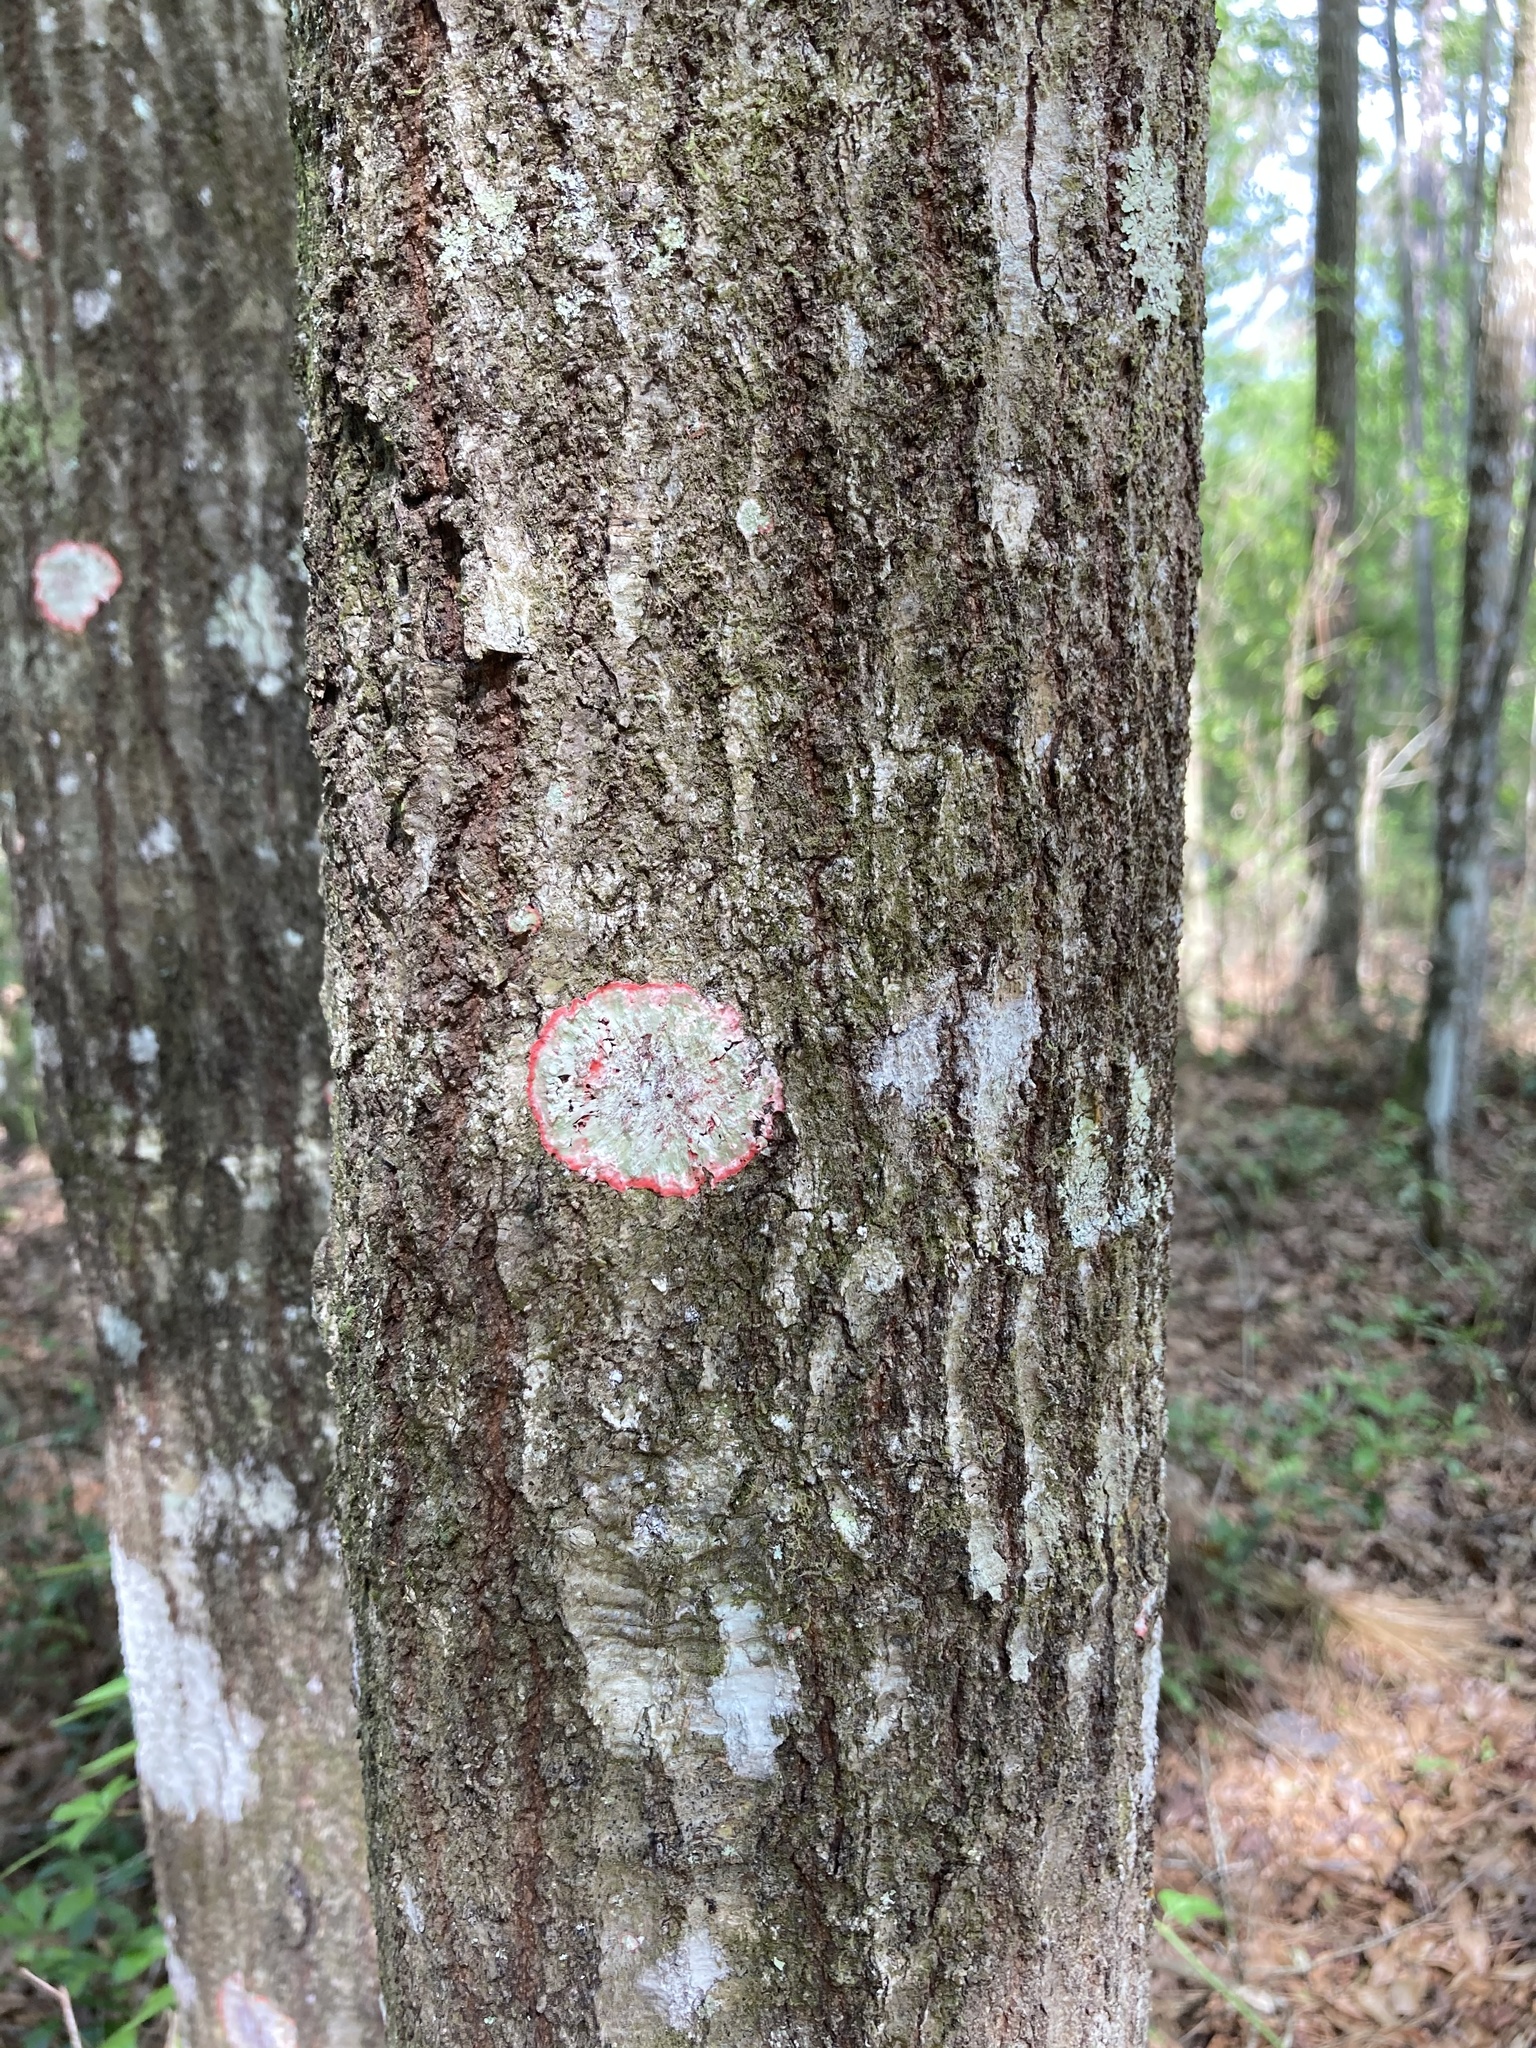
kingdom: Fungi
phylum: Ascomycota
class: Arthoniomycetes
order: Arthoniales
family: Arthoniaceae
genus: Herpothallon
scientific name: Herpothallon rubrocinctum
